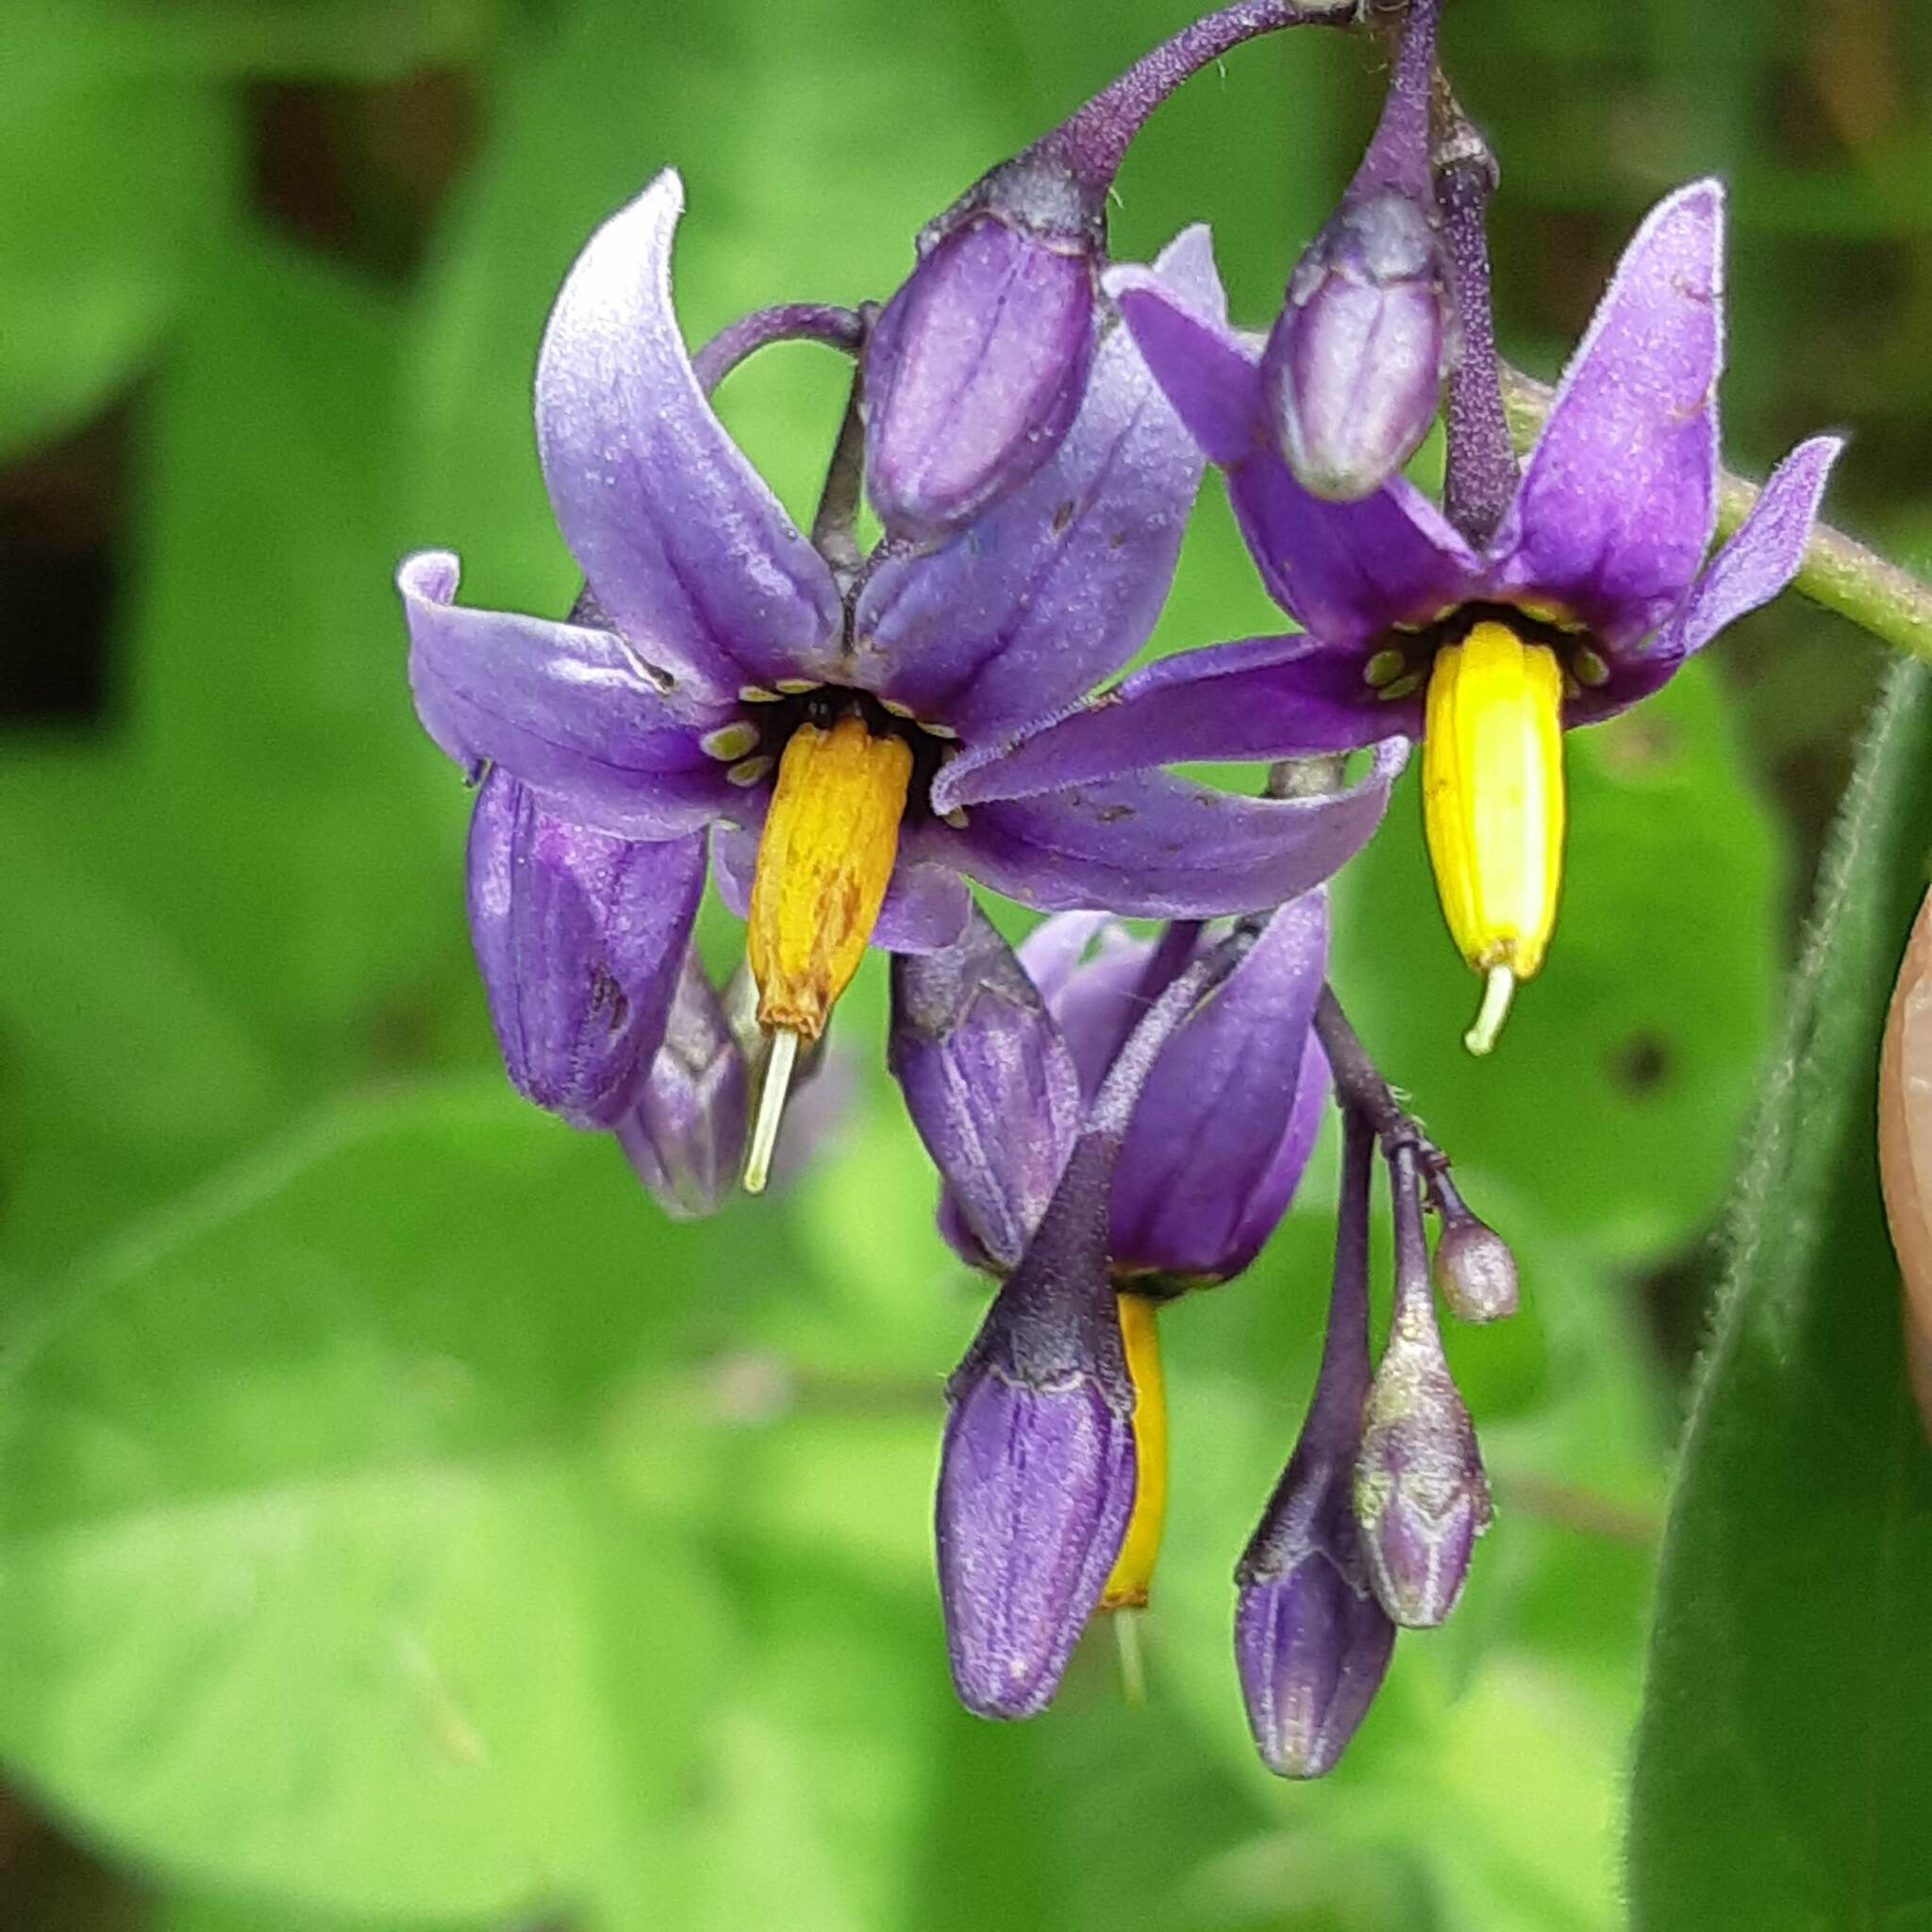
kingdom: Plantae
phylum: Tracheophyta
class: Magnoliopsida
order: Solanales
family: Solanaceae
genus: Solanum
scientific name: Solanum dulcamara
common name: Climbing nightshade
